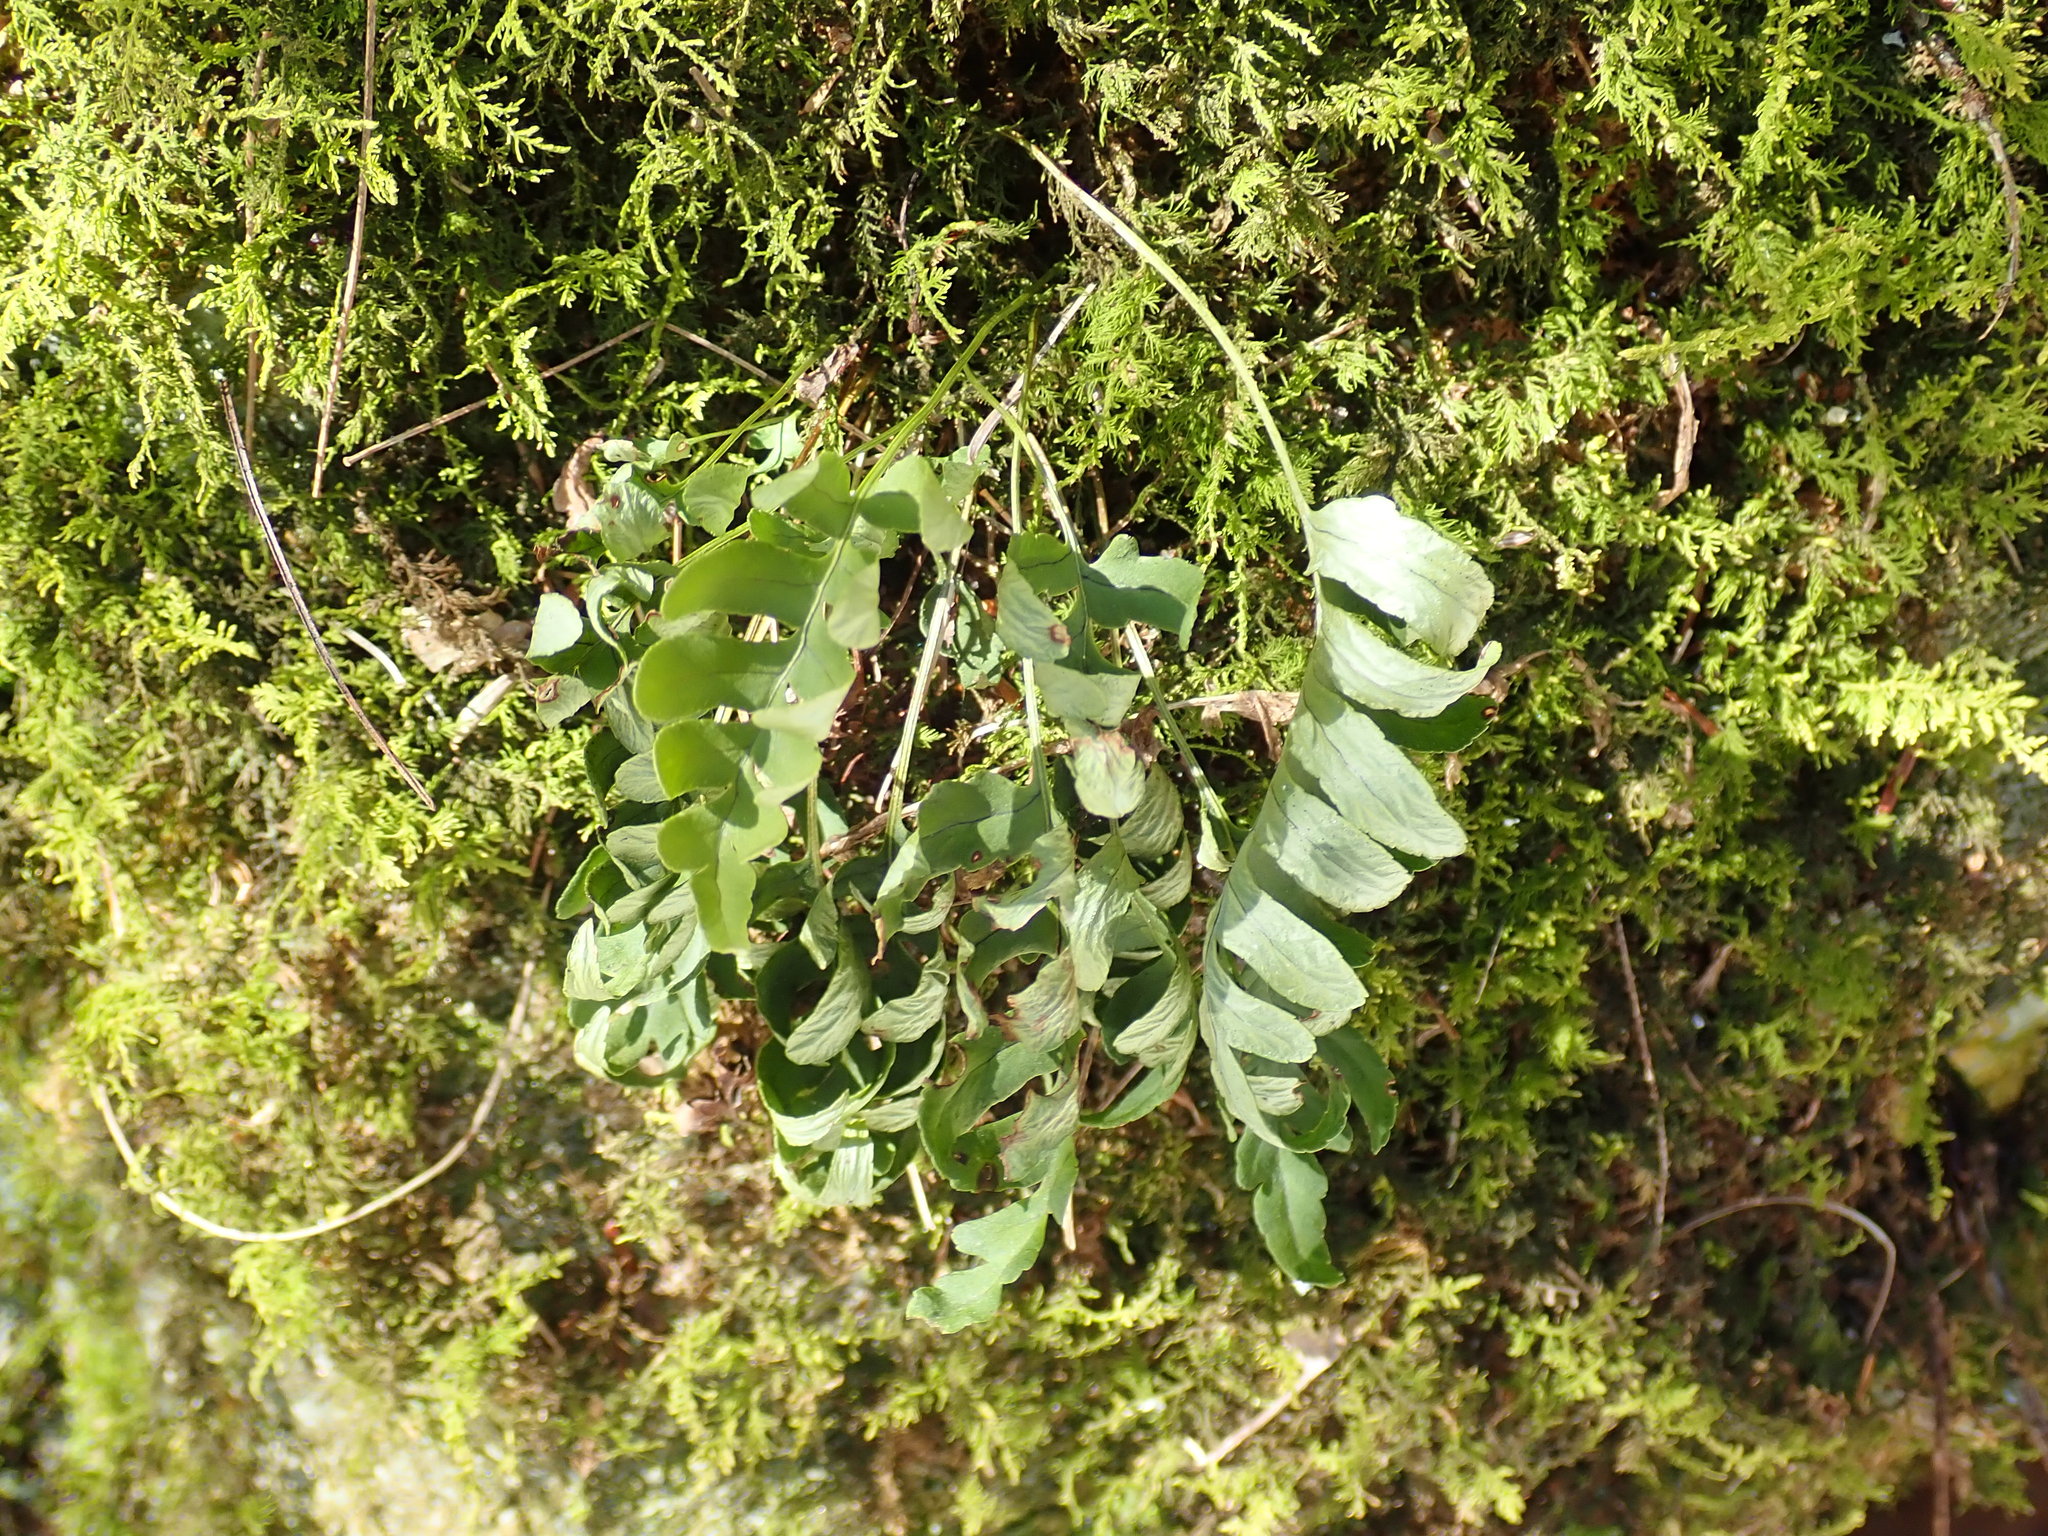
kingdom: Plantae
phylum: Tracheophyta
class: Polypodiopsida
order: Polypodiales
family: Polypodiaceae
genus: Polypodium
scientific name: Polypodium
